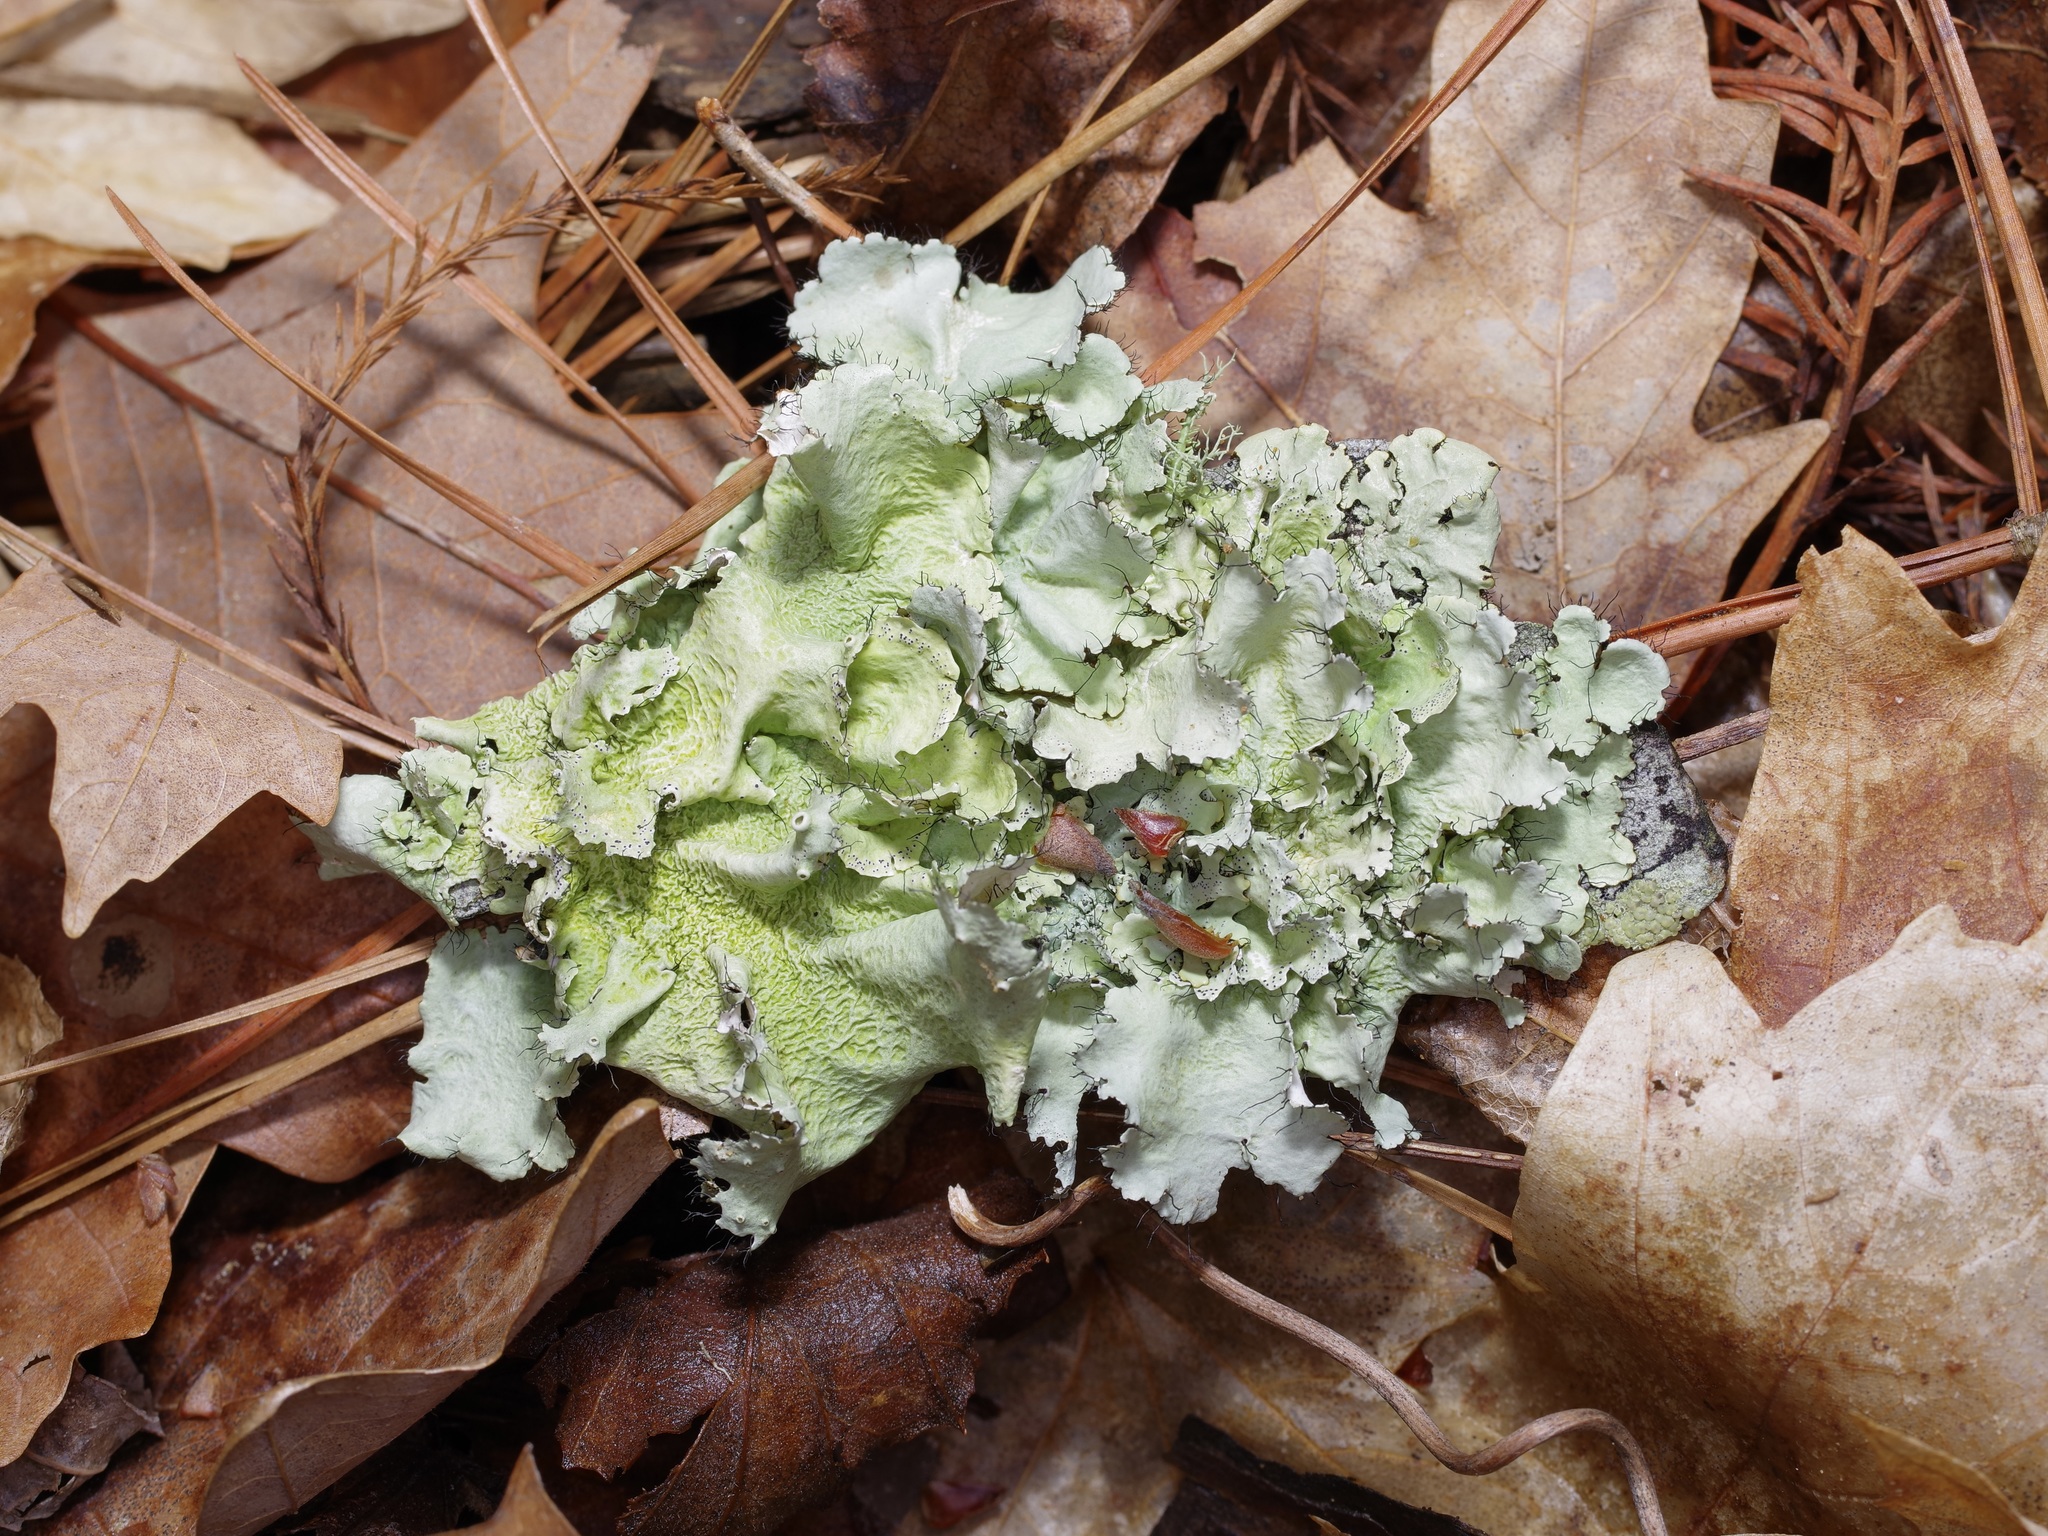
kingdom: Fungi
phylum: Ascomycota
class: Lecanoromycetes
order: Lecanorales
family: Parmeliaceae
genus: Parmotrema
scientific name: Parmotrema hypotropum
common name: Powdered ruffle lichen
